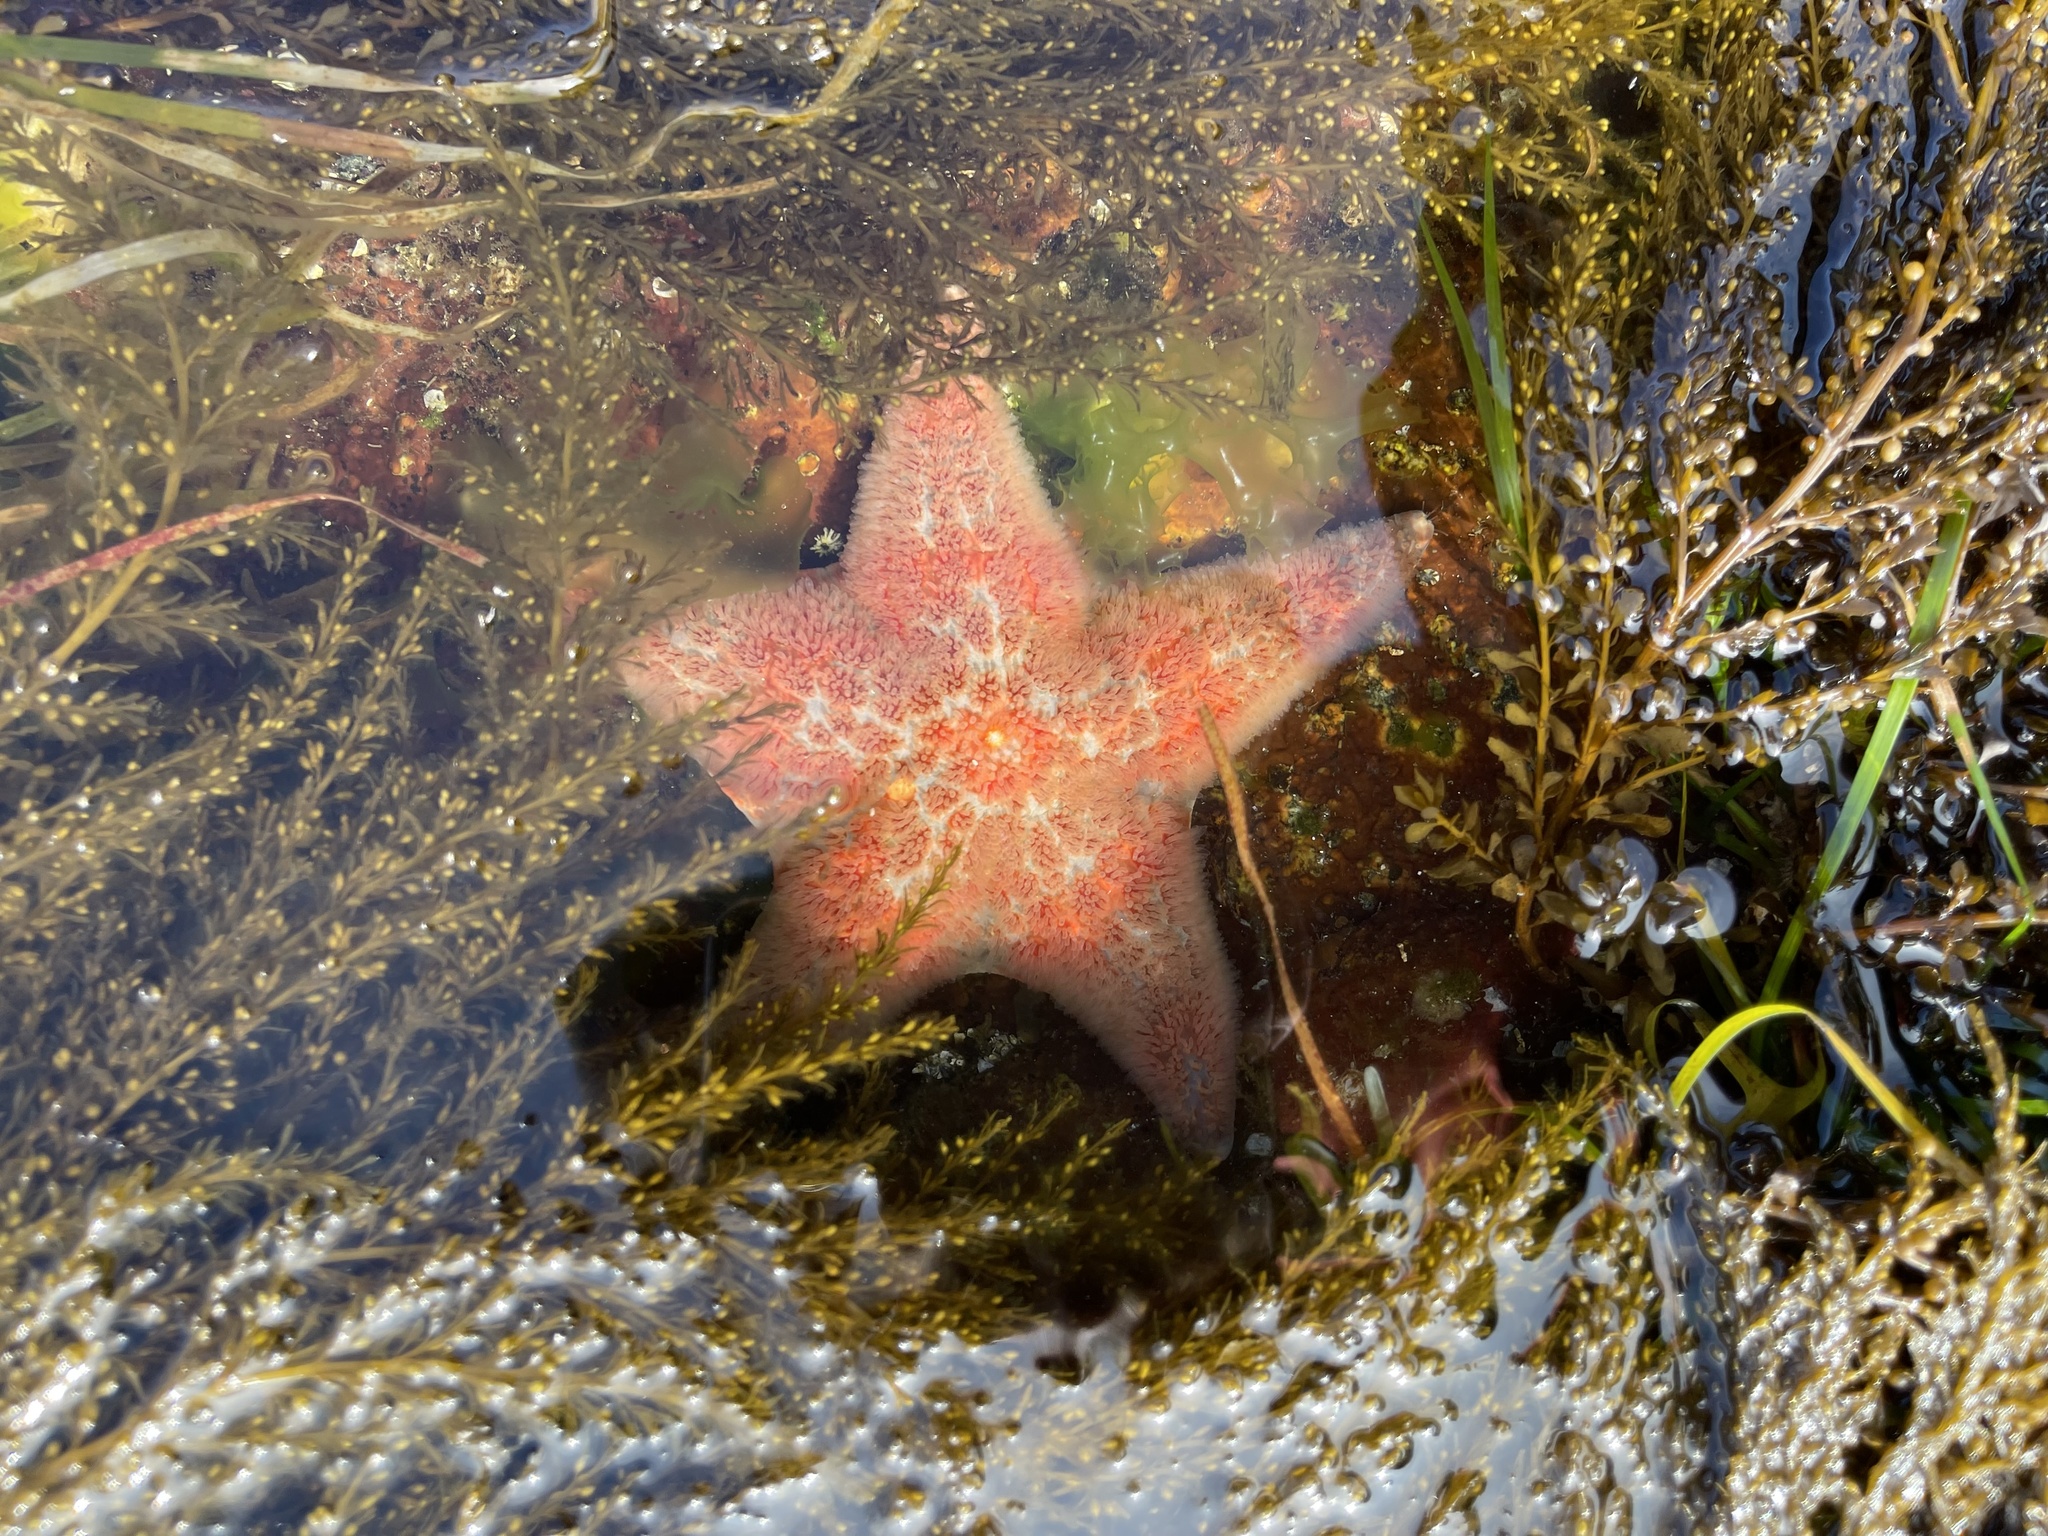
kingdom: Animalia
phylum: Echinodermata
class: Asteroidea
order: Valvatida
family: Asteropseidae
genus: Dermasterias
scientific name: Dermasterias imbricata
